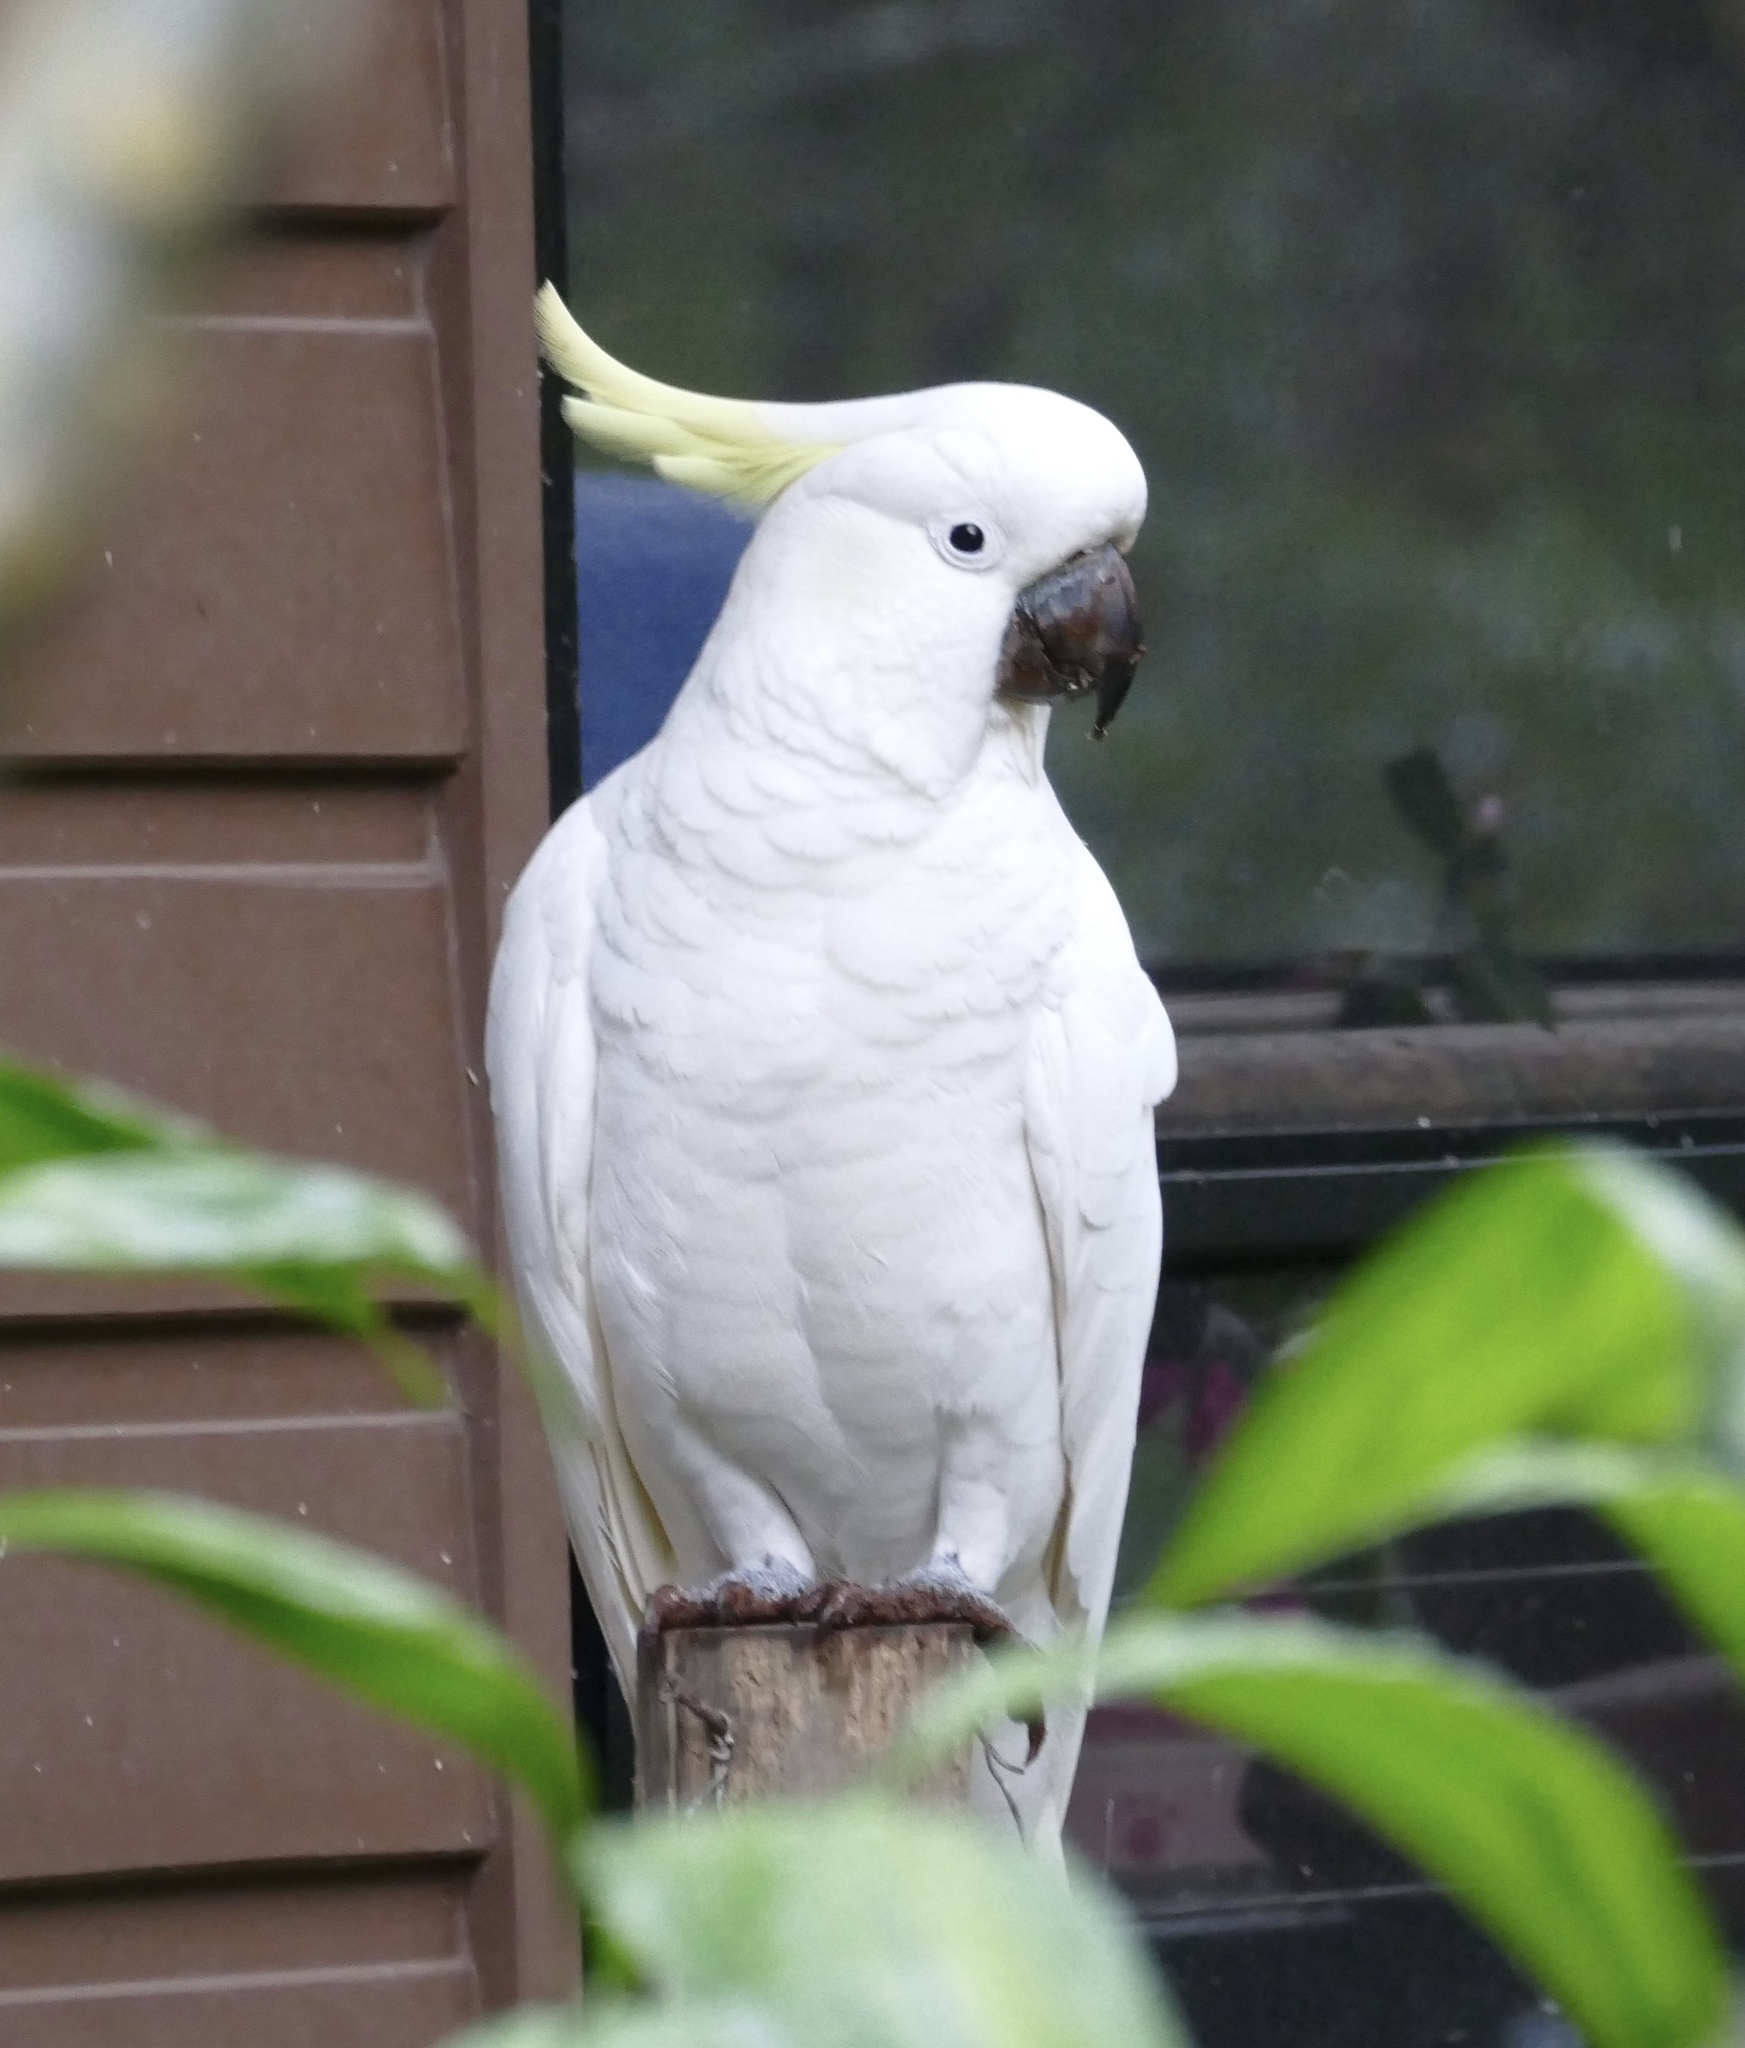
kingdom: Animalia
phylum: Chordata
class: Aves
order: Psittaciformes
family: Psittacidae
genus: Cacatua
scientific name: Cacatua galerita
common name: Sulphur-crested cockatoo
